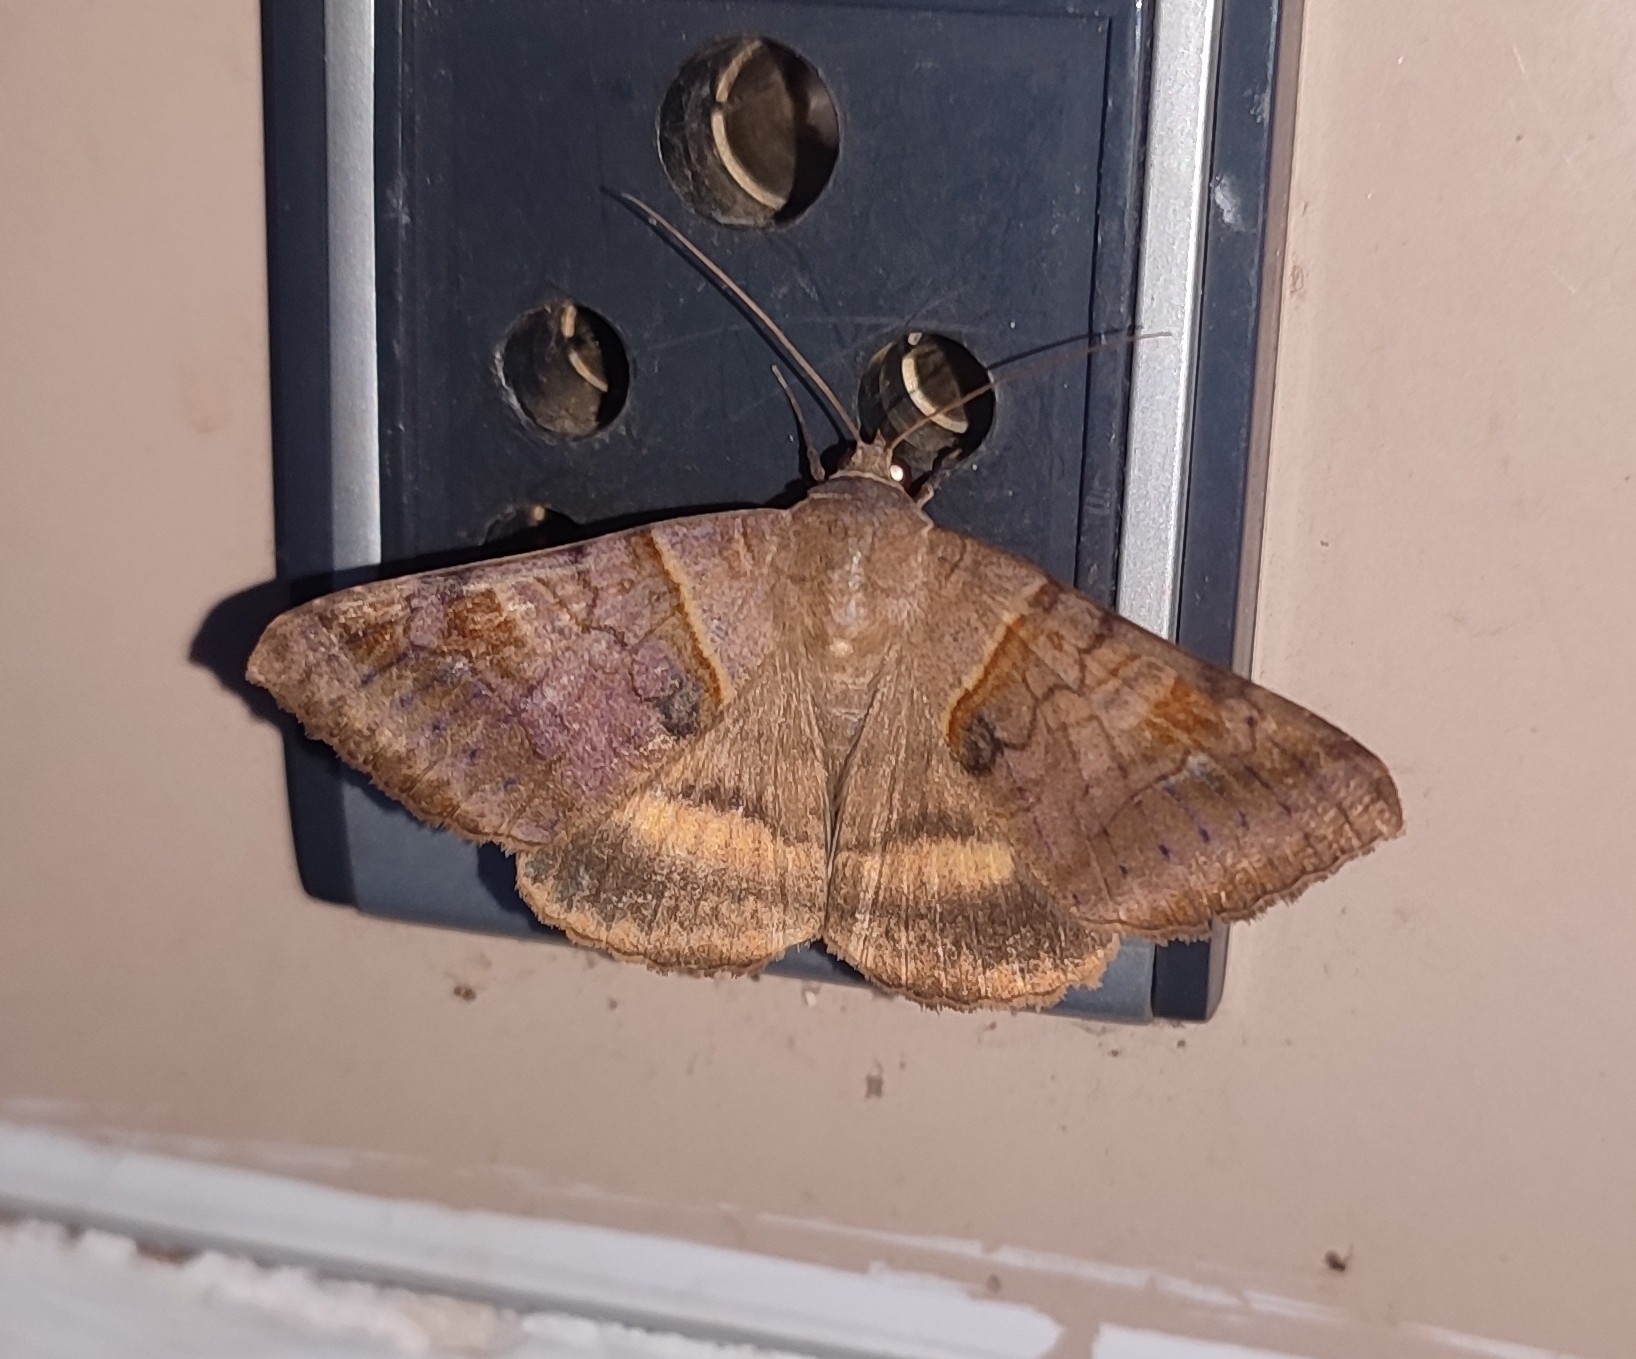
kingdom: Animalia
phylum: Arthropoda
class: Insecta
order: Lepidoptera
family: Erebidae
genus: Mocis
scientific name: Mocis undata
